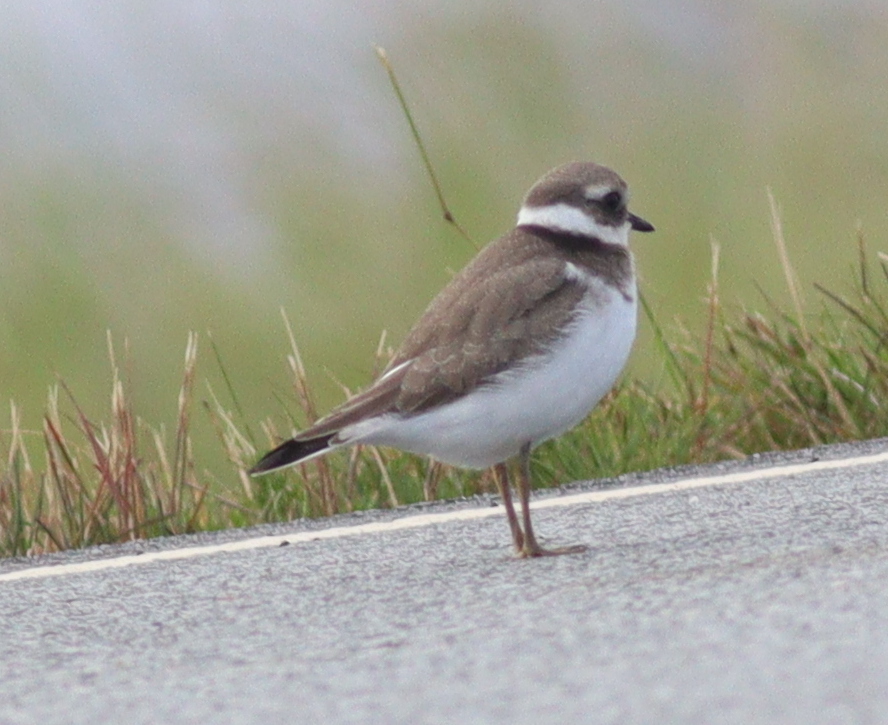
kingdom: Animalia
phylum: Chordata
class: Aves
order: Charadriiformes
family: Charadriidae
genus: Charadrius
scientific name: Charadrius hiaticula
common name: Common ringed plover
